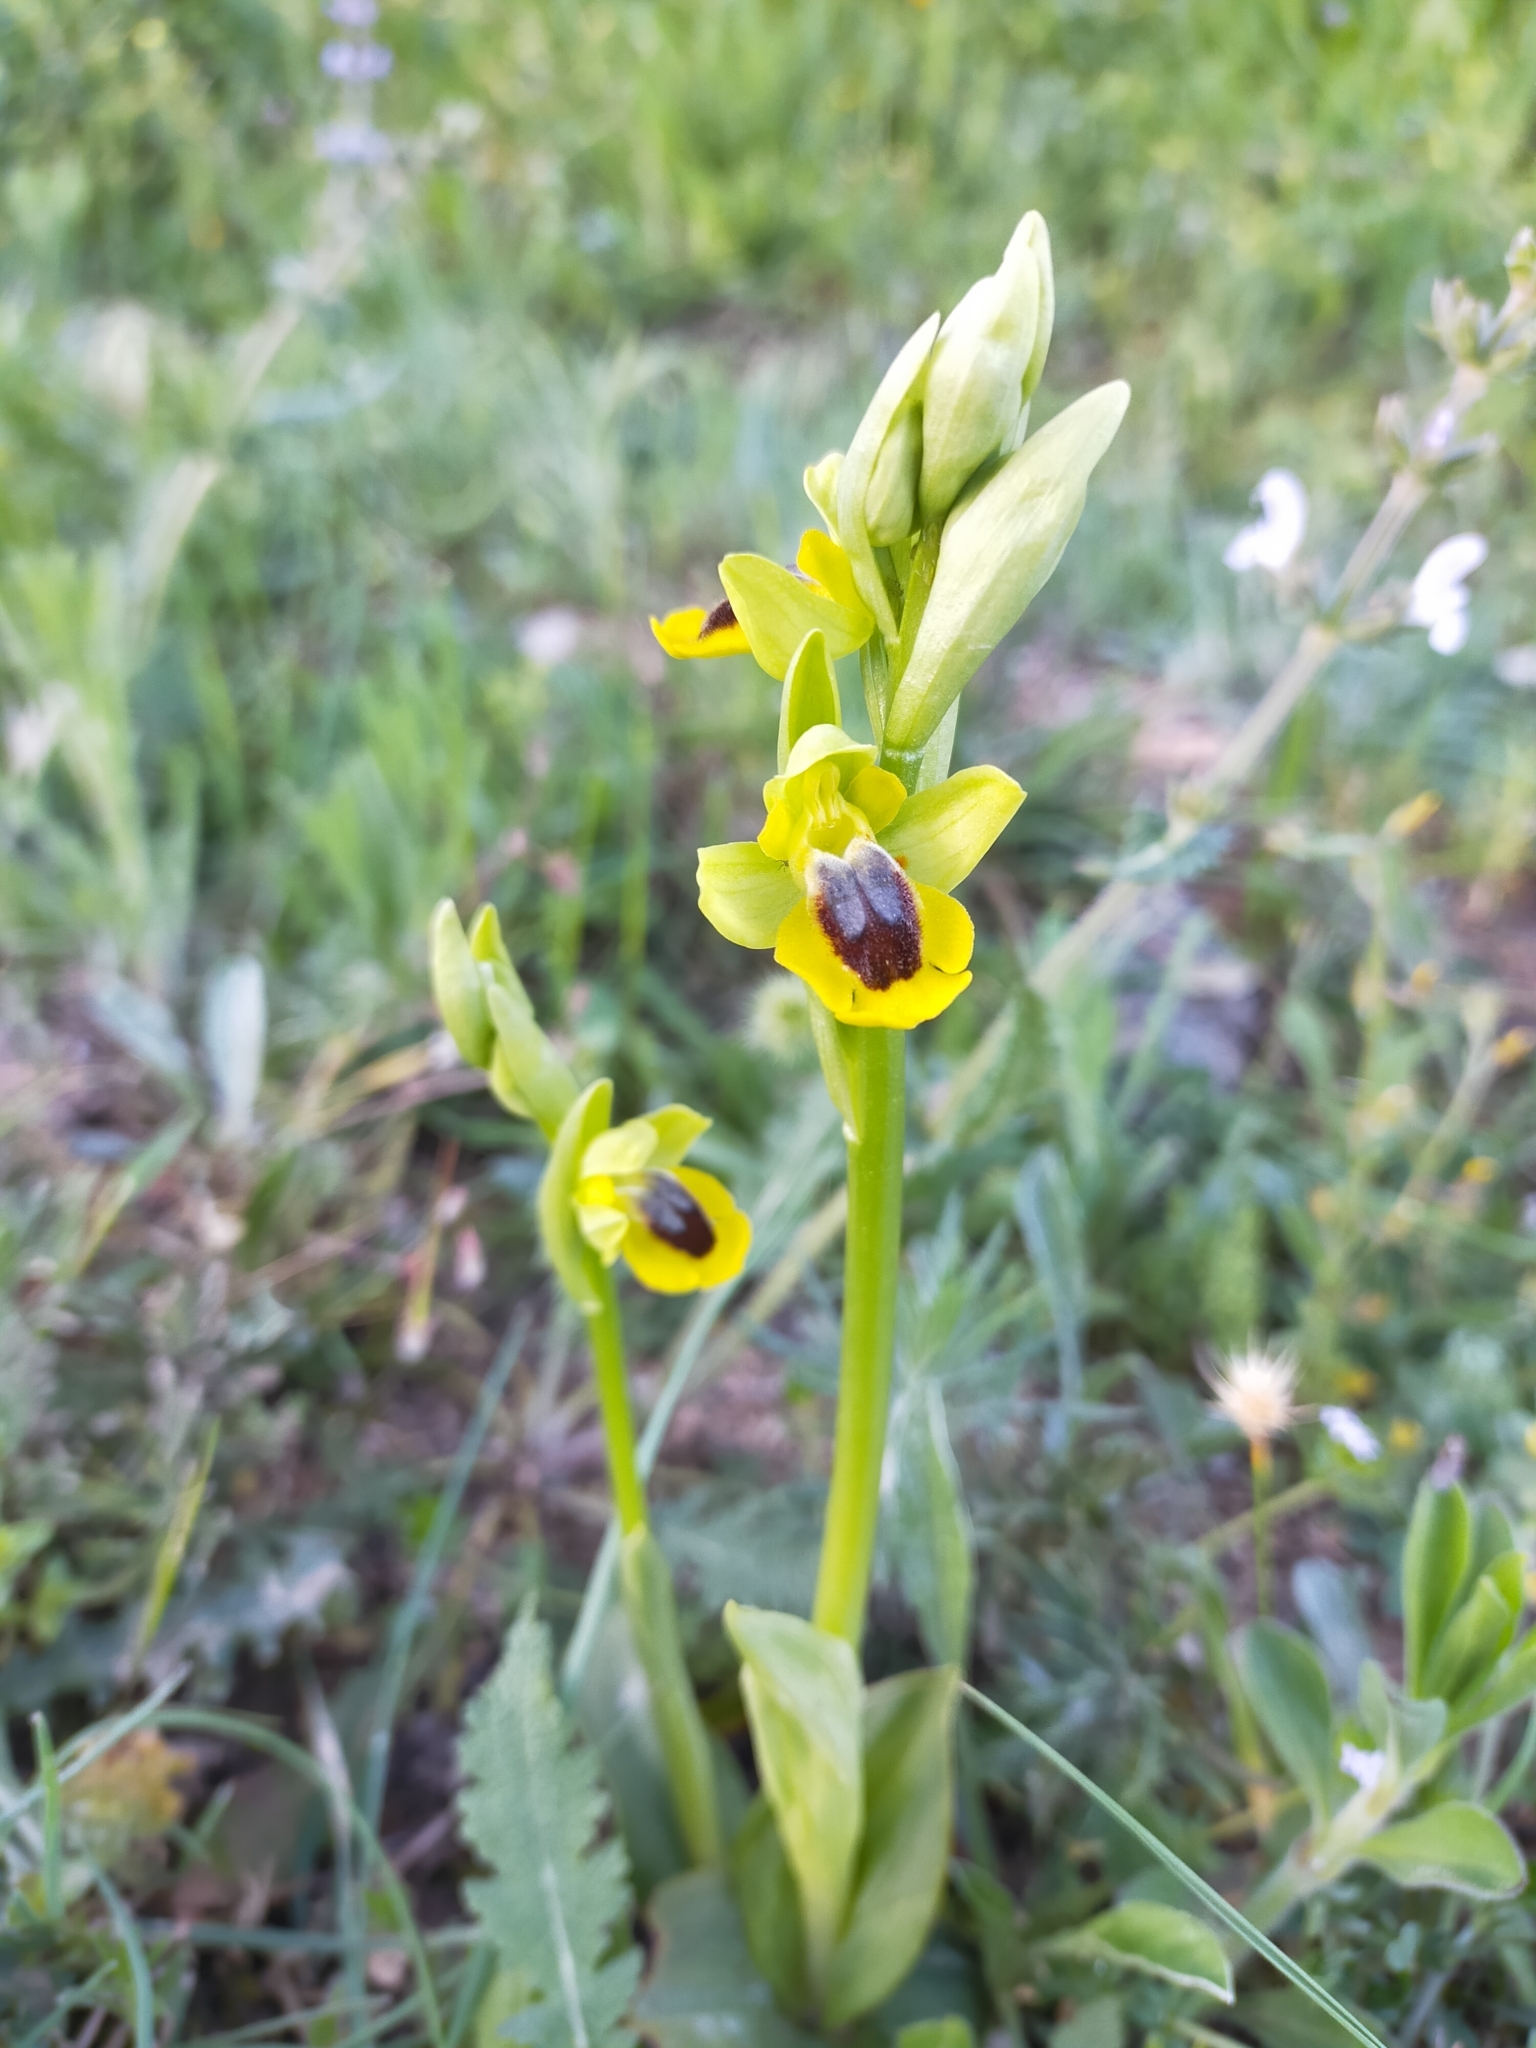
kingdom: Plantae
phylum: Tracheophyta
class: Liliopsida
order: Asparagales
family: Orchidaceae
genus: Ophrys
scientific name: Ophrys lutea
